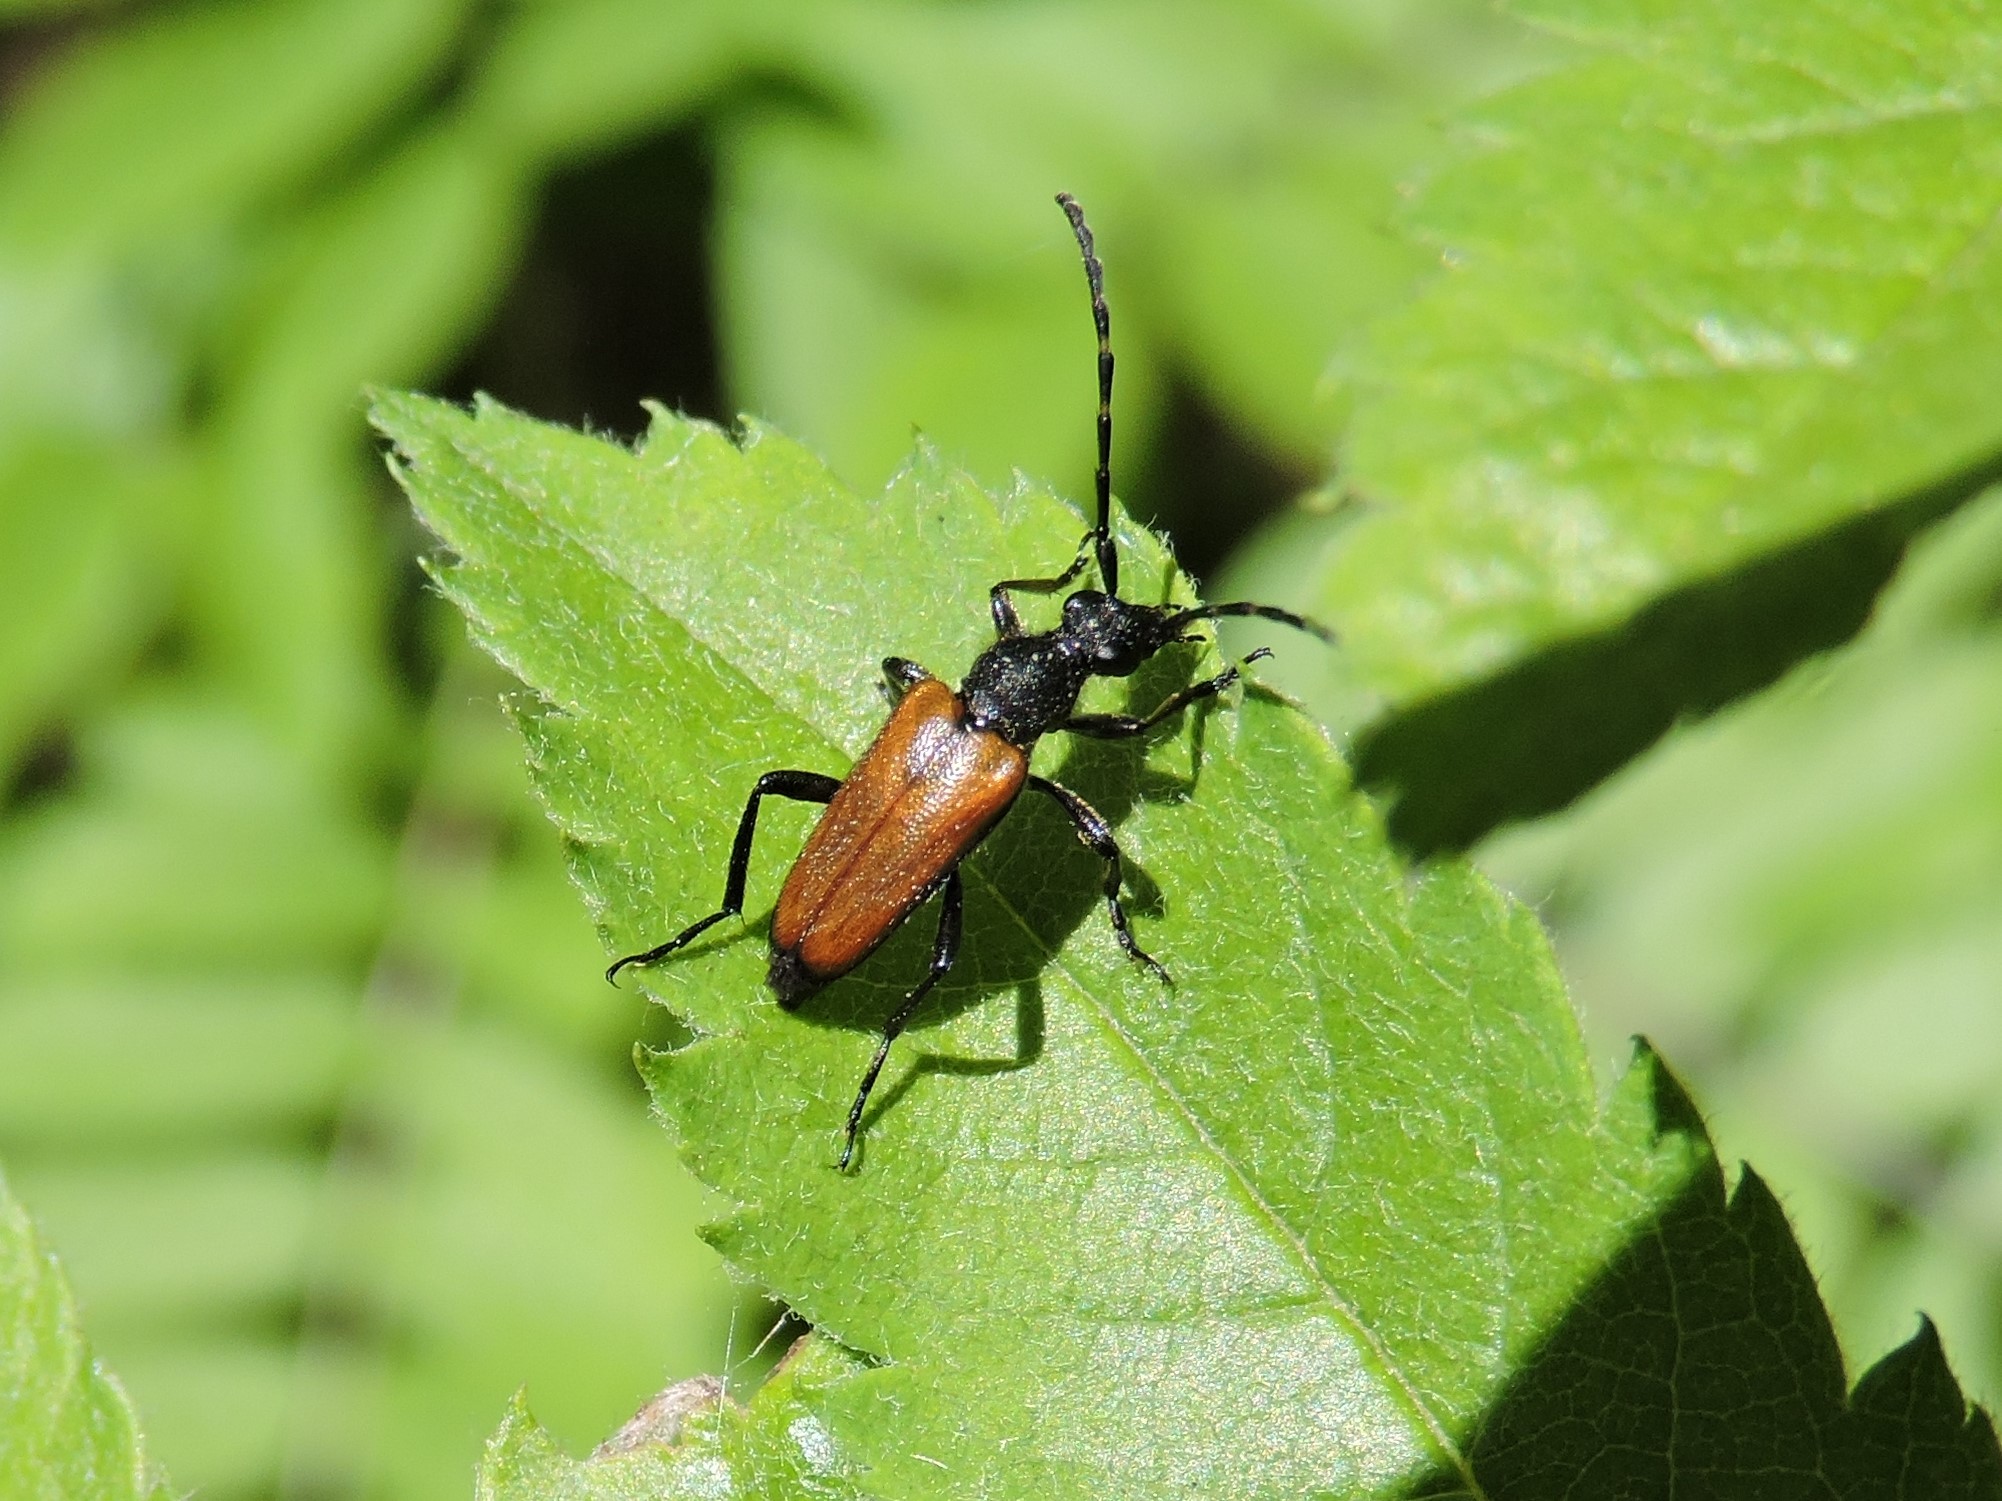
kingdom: Animalia
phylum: Arthropoda
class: Insecta
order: Coleoptera
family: Cerambycidae
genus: Paracorymbia
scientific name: Paracorymbia maculicornis
